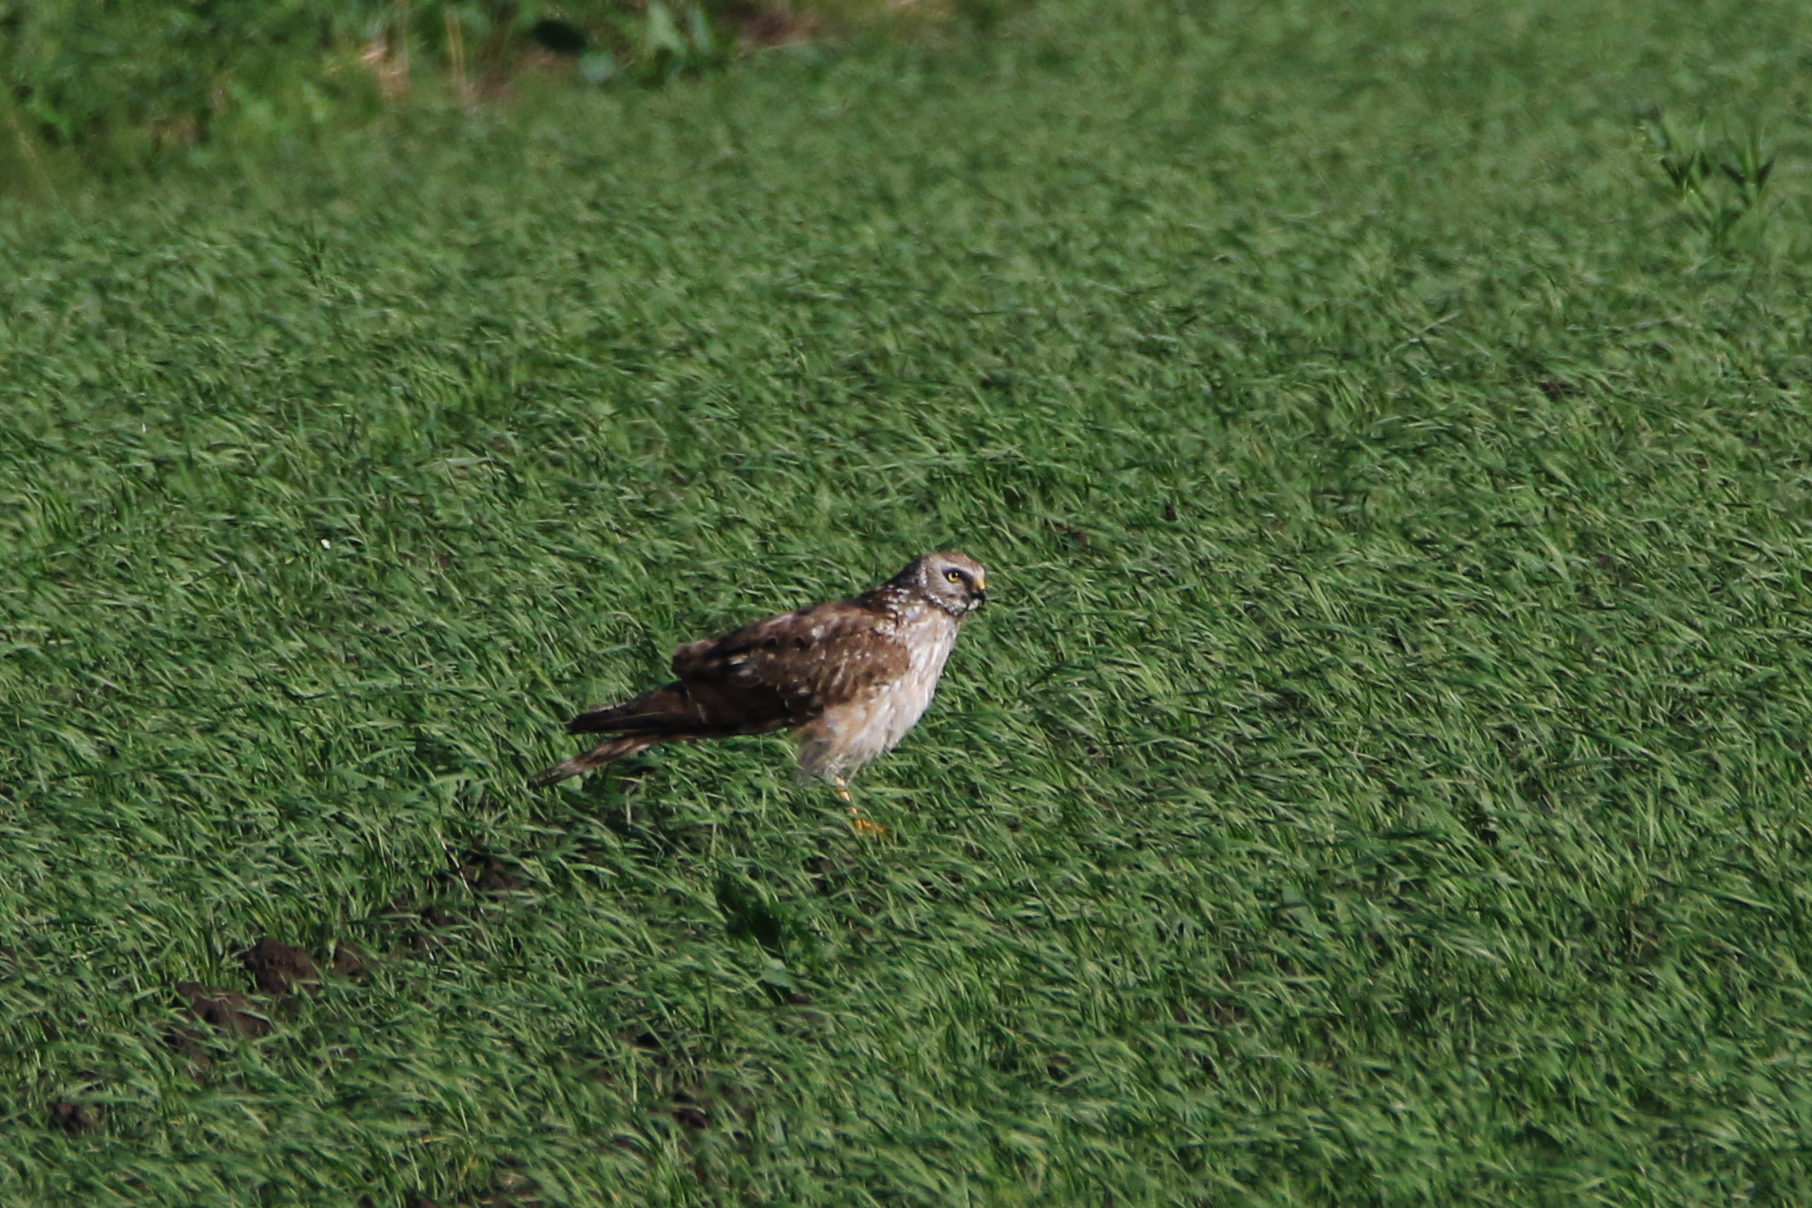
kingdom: Animalia
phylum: Chordata
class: Aves
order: Accipitriformes
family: Accipitridae
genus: Circus
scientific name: Circus cyaneus
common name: Hen harrier
